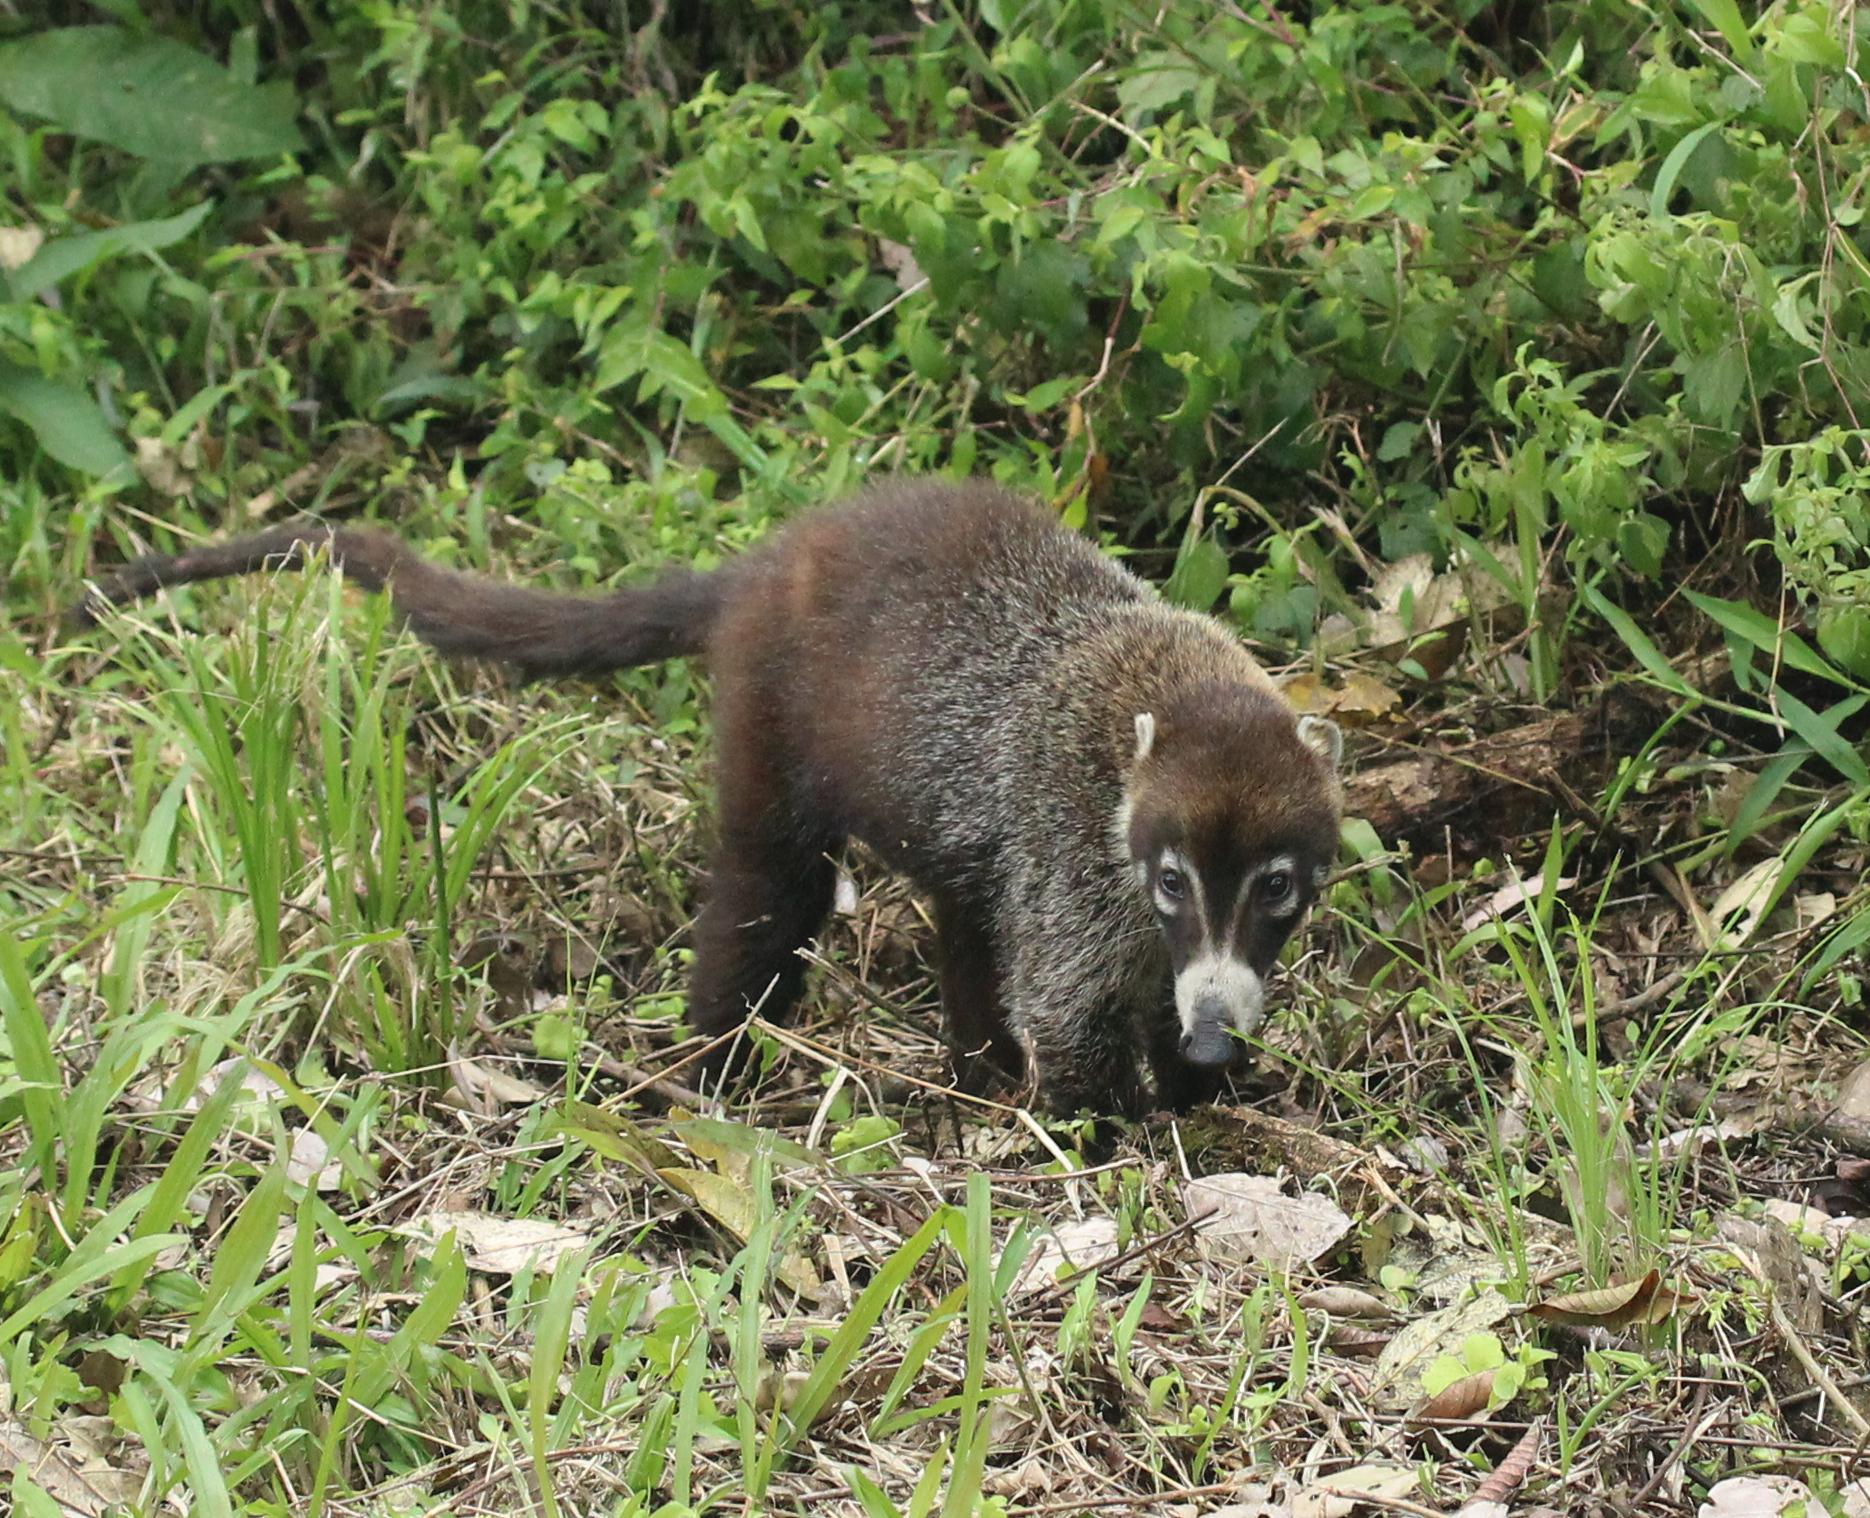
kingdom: Animalia
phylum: Chordata
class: Mammalia
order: Carnivora
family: Procyonidae
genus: Nasua
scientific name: Nasua narica
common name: White-nosed coati
